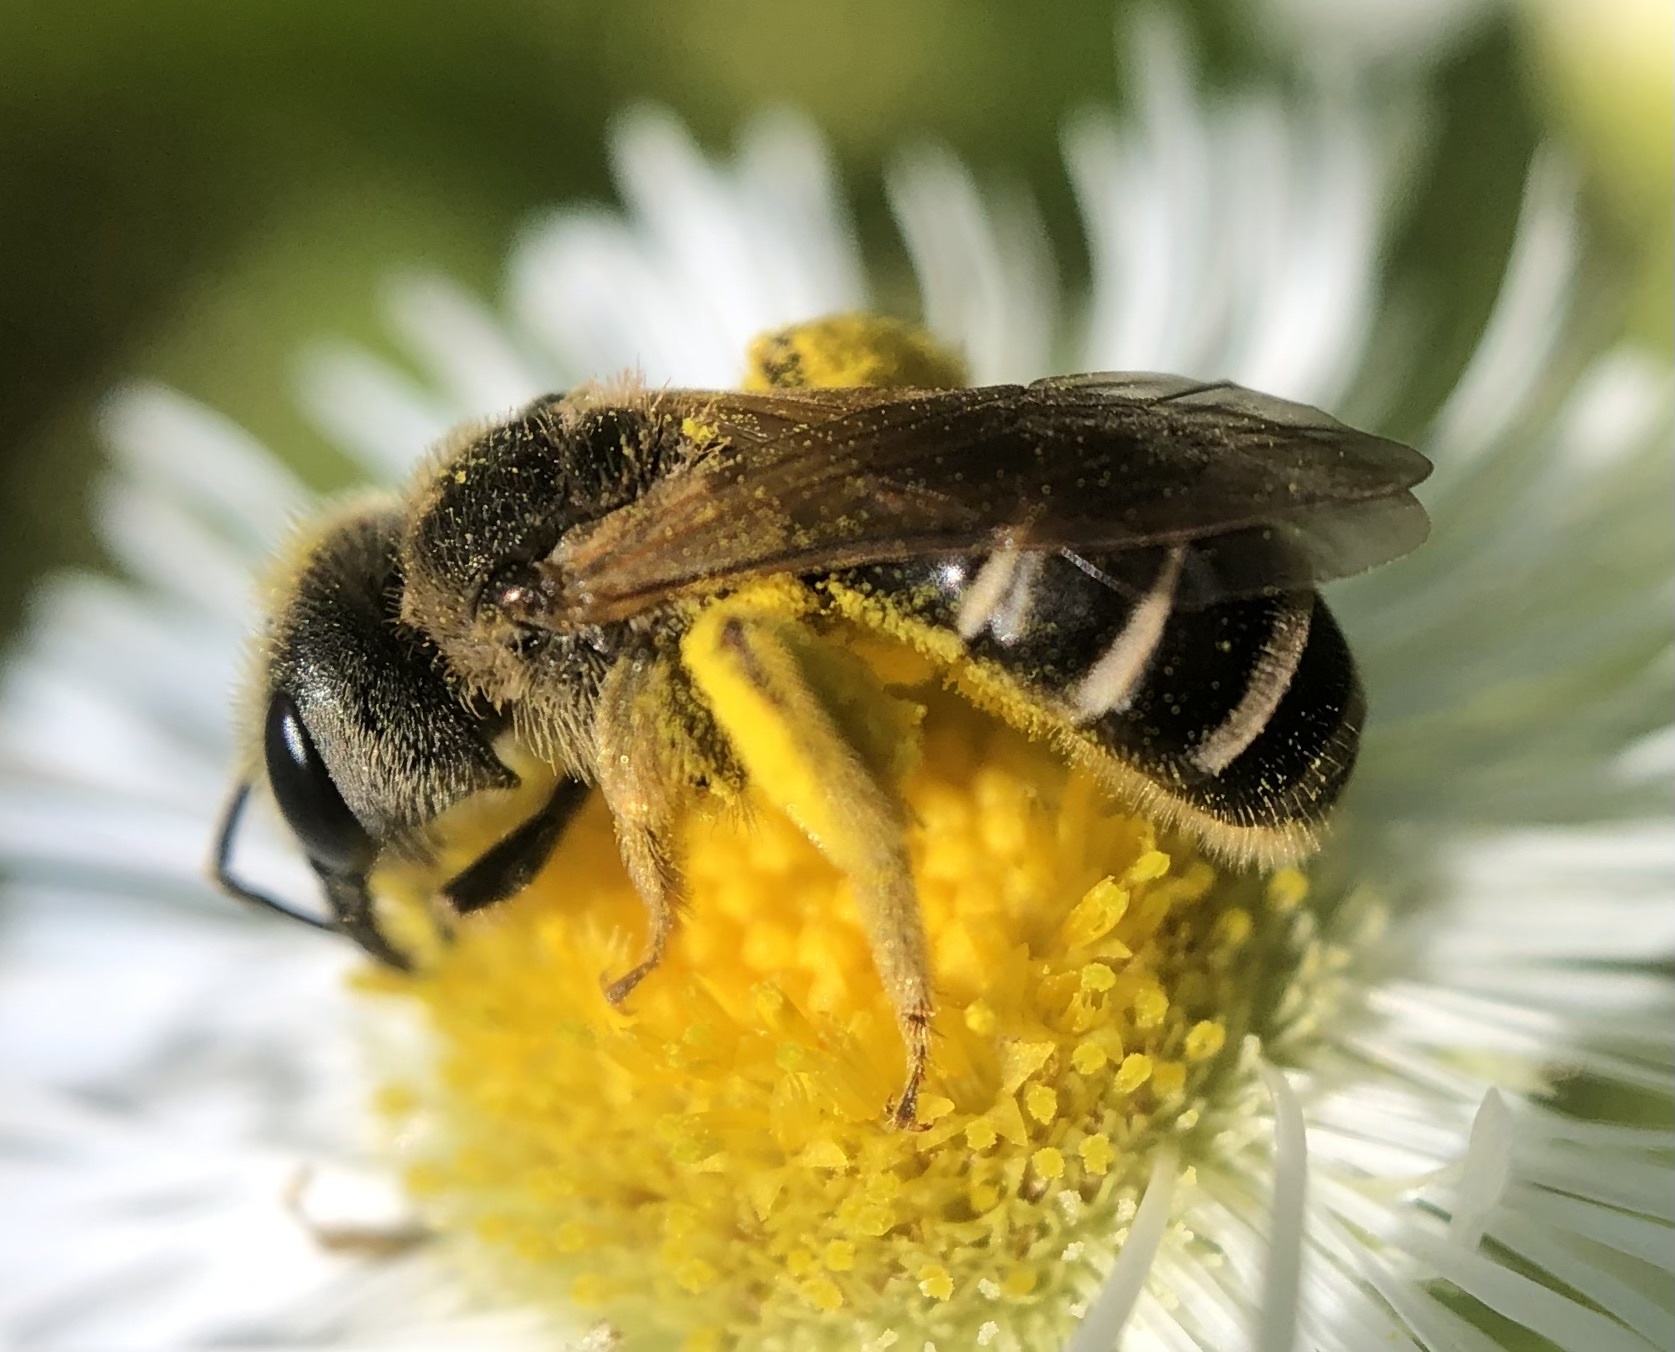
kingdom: Animalia
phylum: Arthropoda
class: Insecta
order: Hymenoptera
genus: Odontalictus
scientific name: Odontalictus
